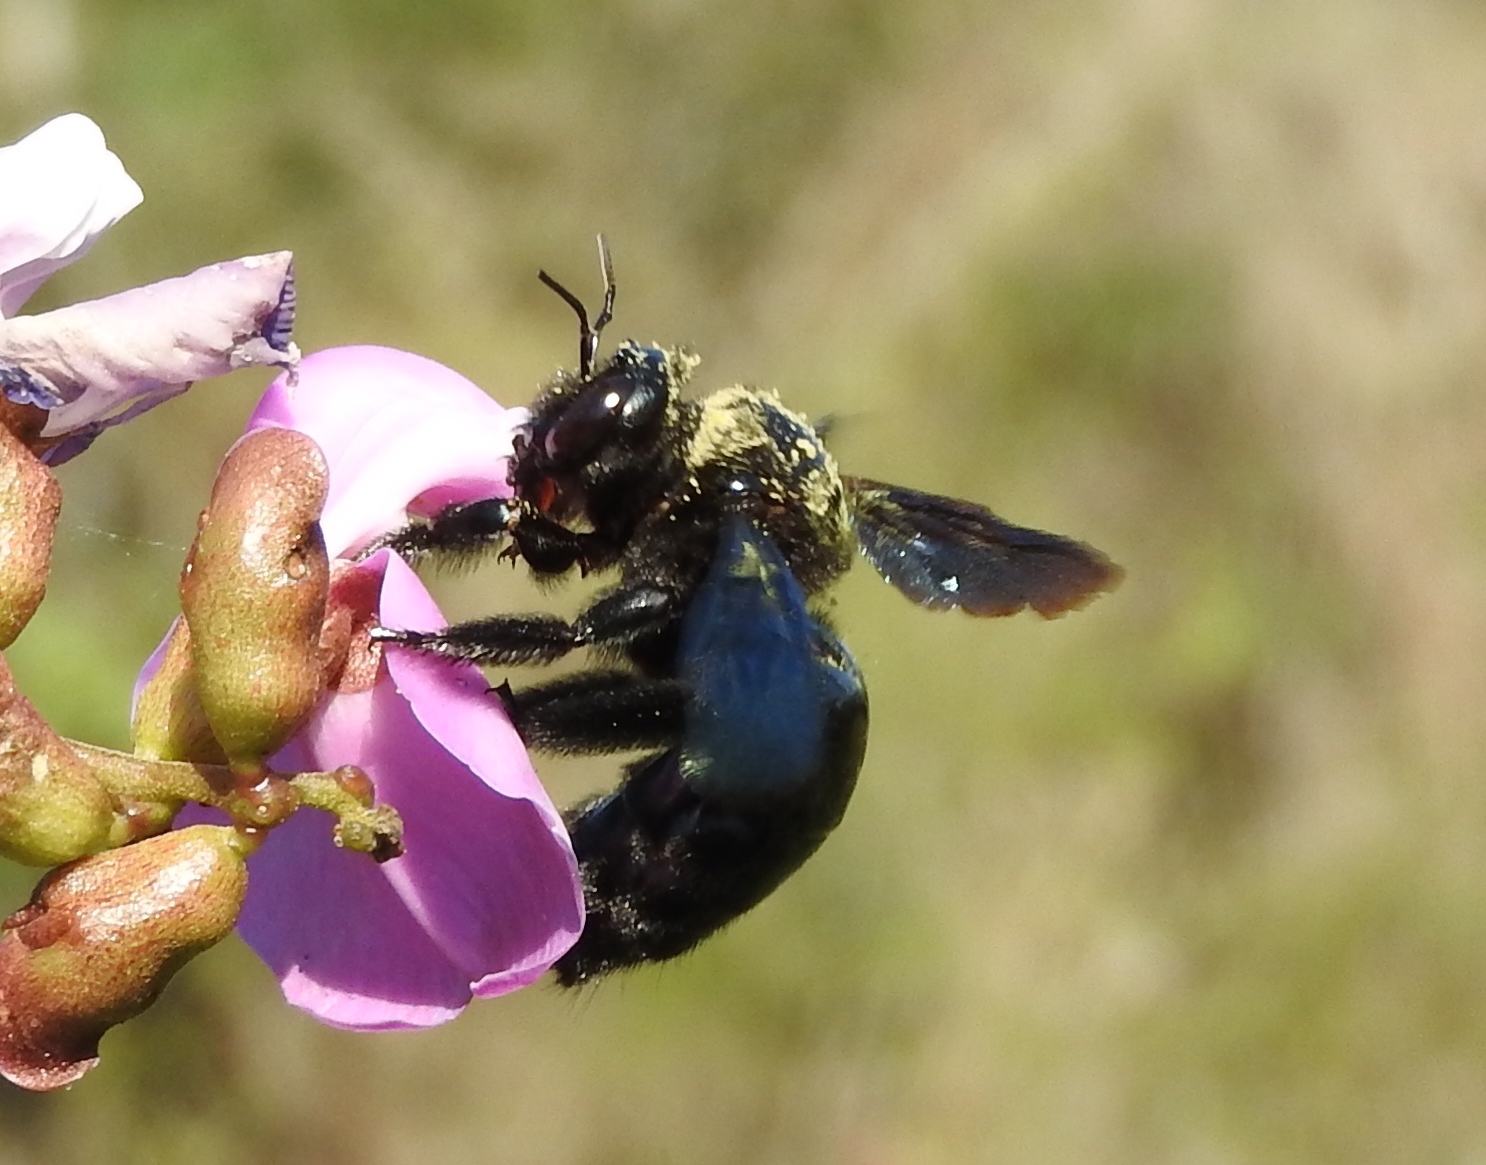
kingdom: Animalia
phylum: Arthropoda
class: Insecta
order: Hymenoptera
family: Apidae
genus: Xylocopa
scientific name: Xylocopa fimbriata
